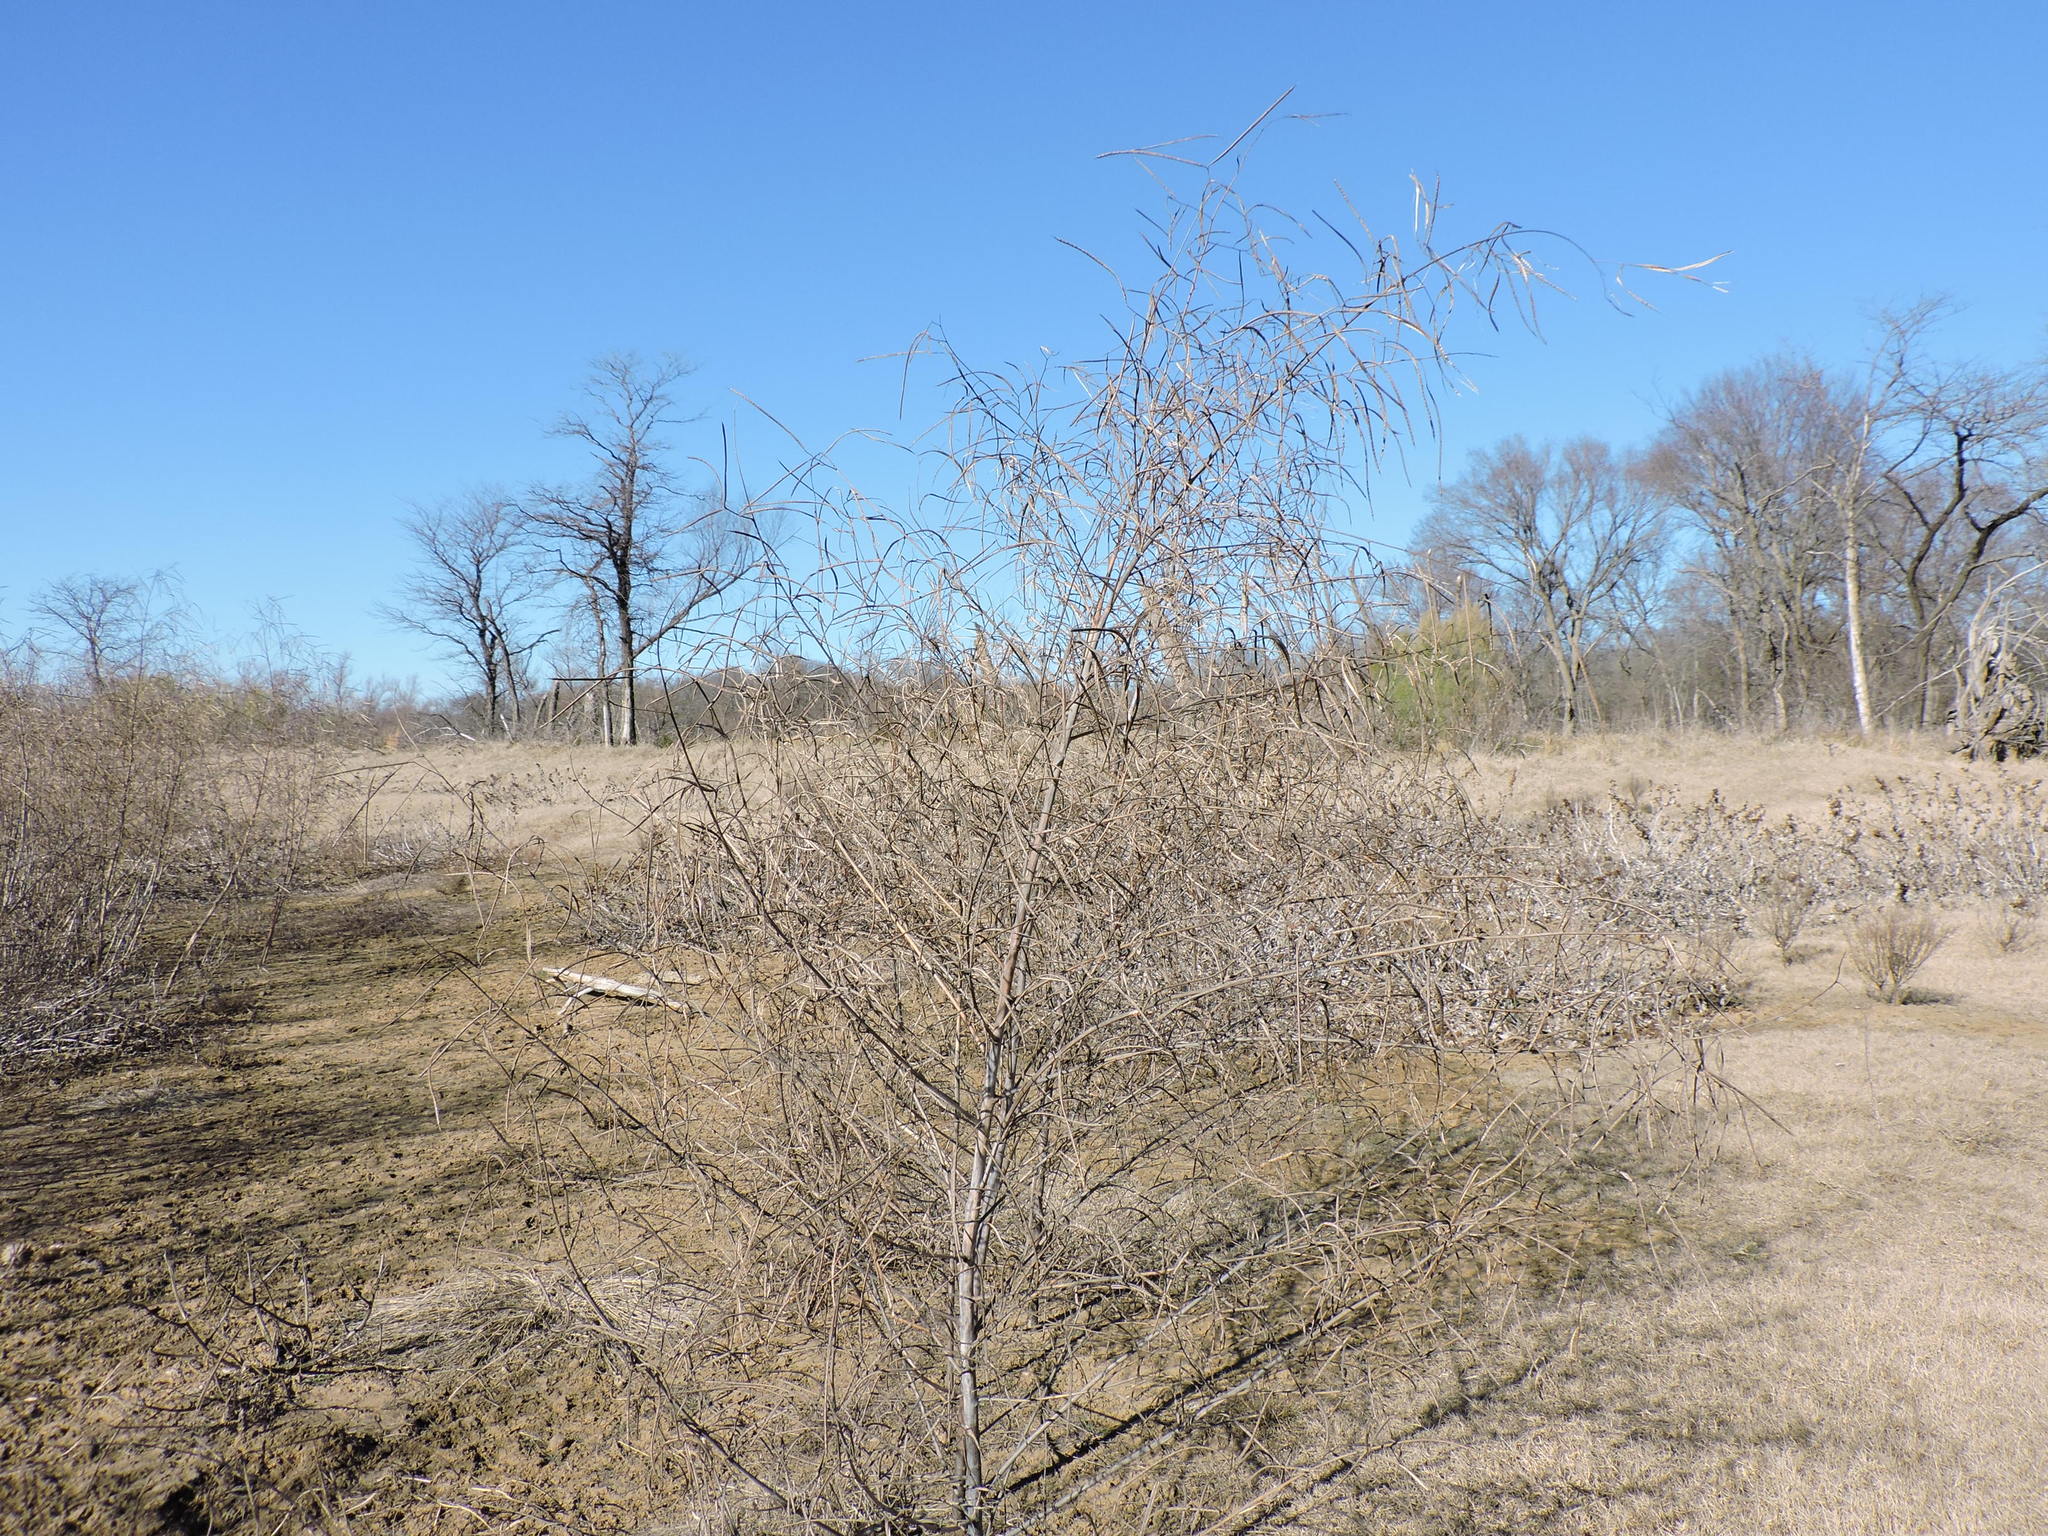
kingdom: Plantae
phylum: Tracheophyta
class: Magnoliopsida
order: Fabales
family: Fabaceae
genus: Sesbania
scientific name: Sesbania herbacea
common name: Bigpod sesbania
